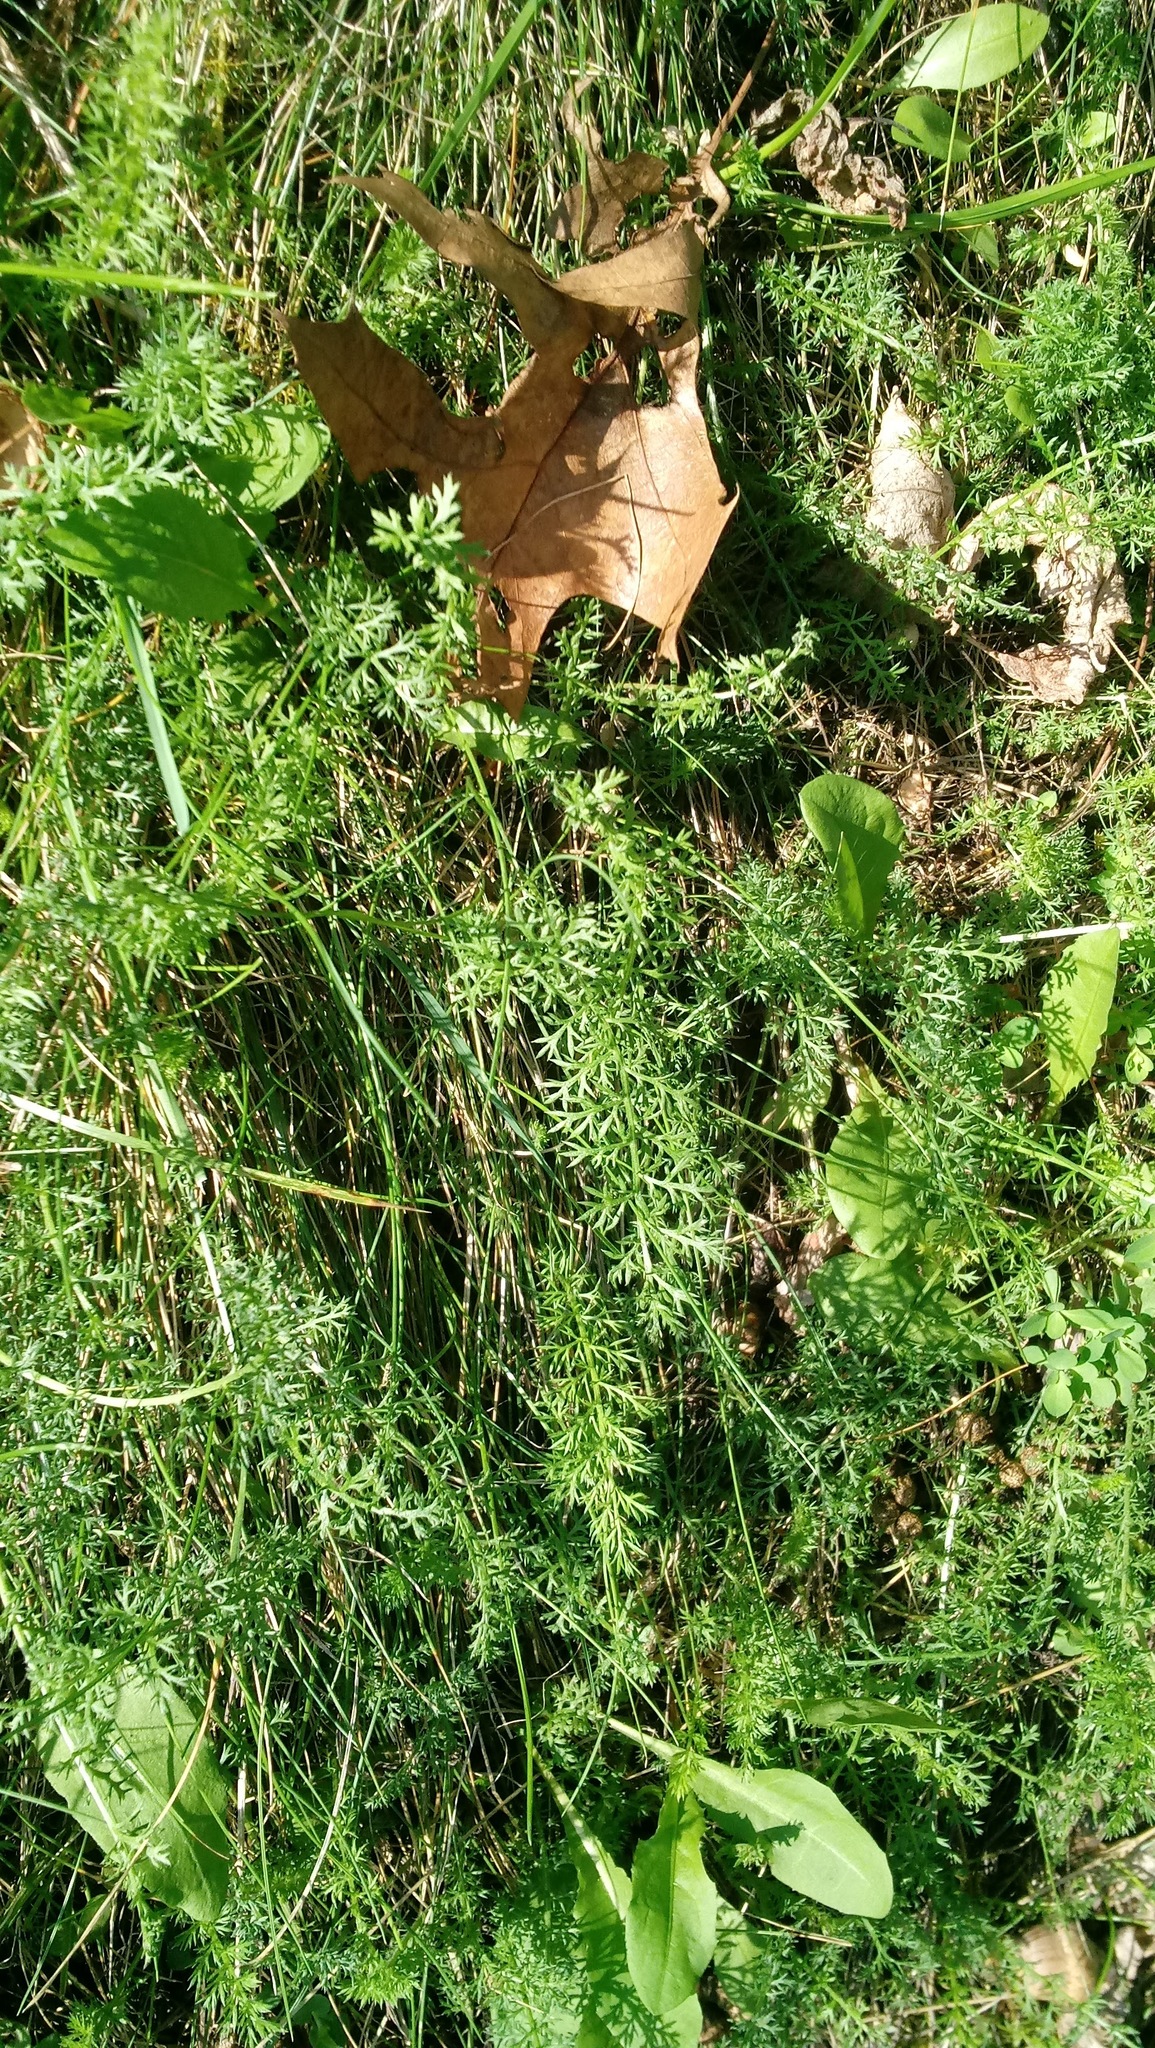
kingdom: Plantae
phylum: Tracheophyta
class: Magnoliopsida
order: Apiales
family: Apiaceae
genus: Daucus
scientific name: Daucus carota
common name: Wild carrot
